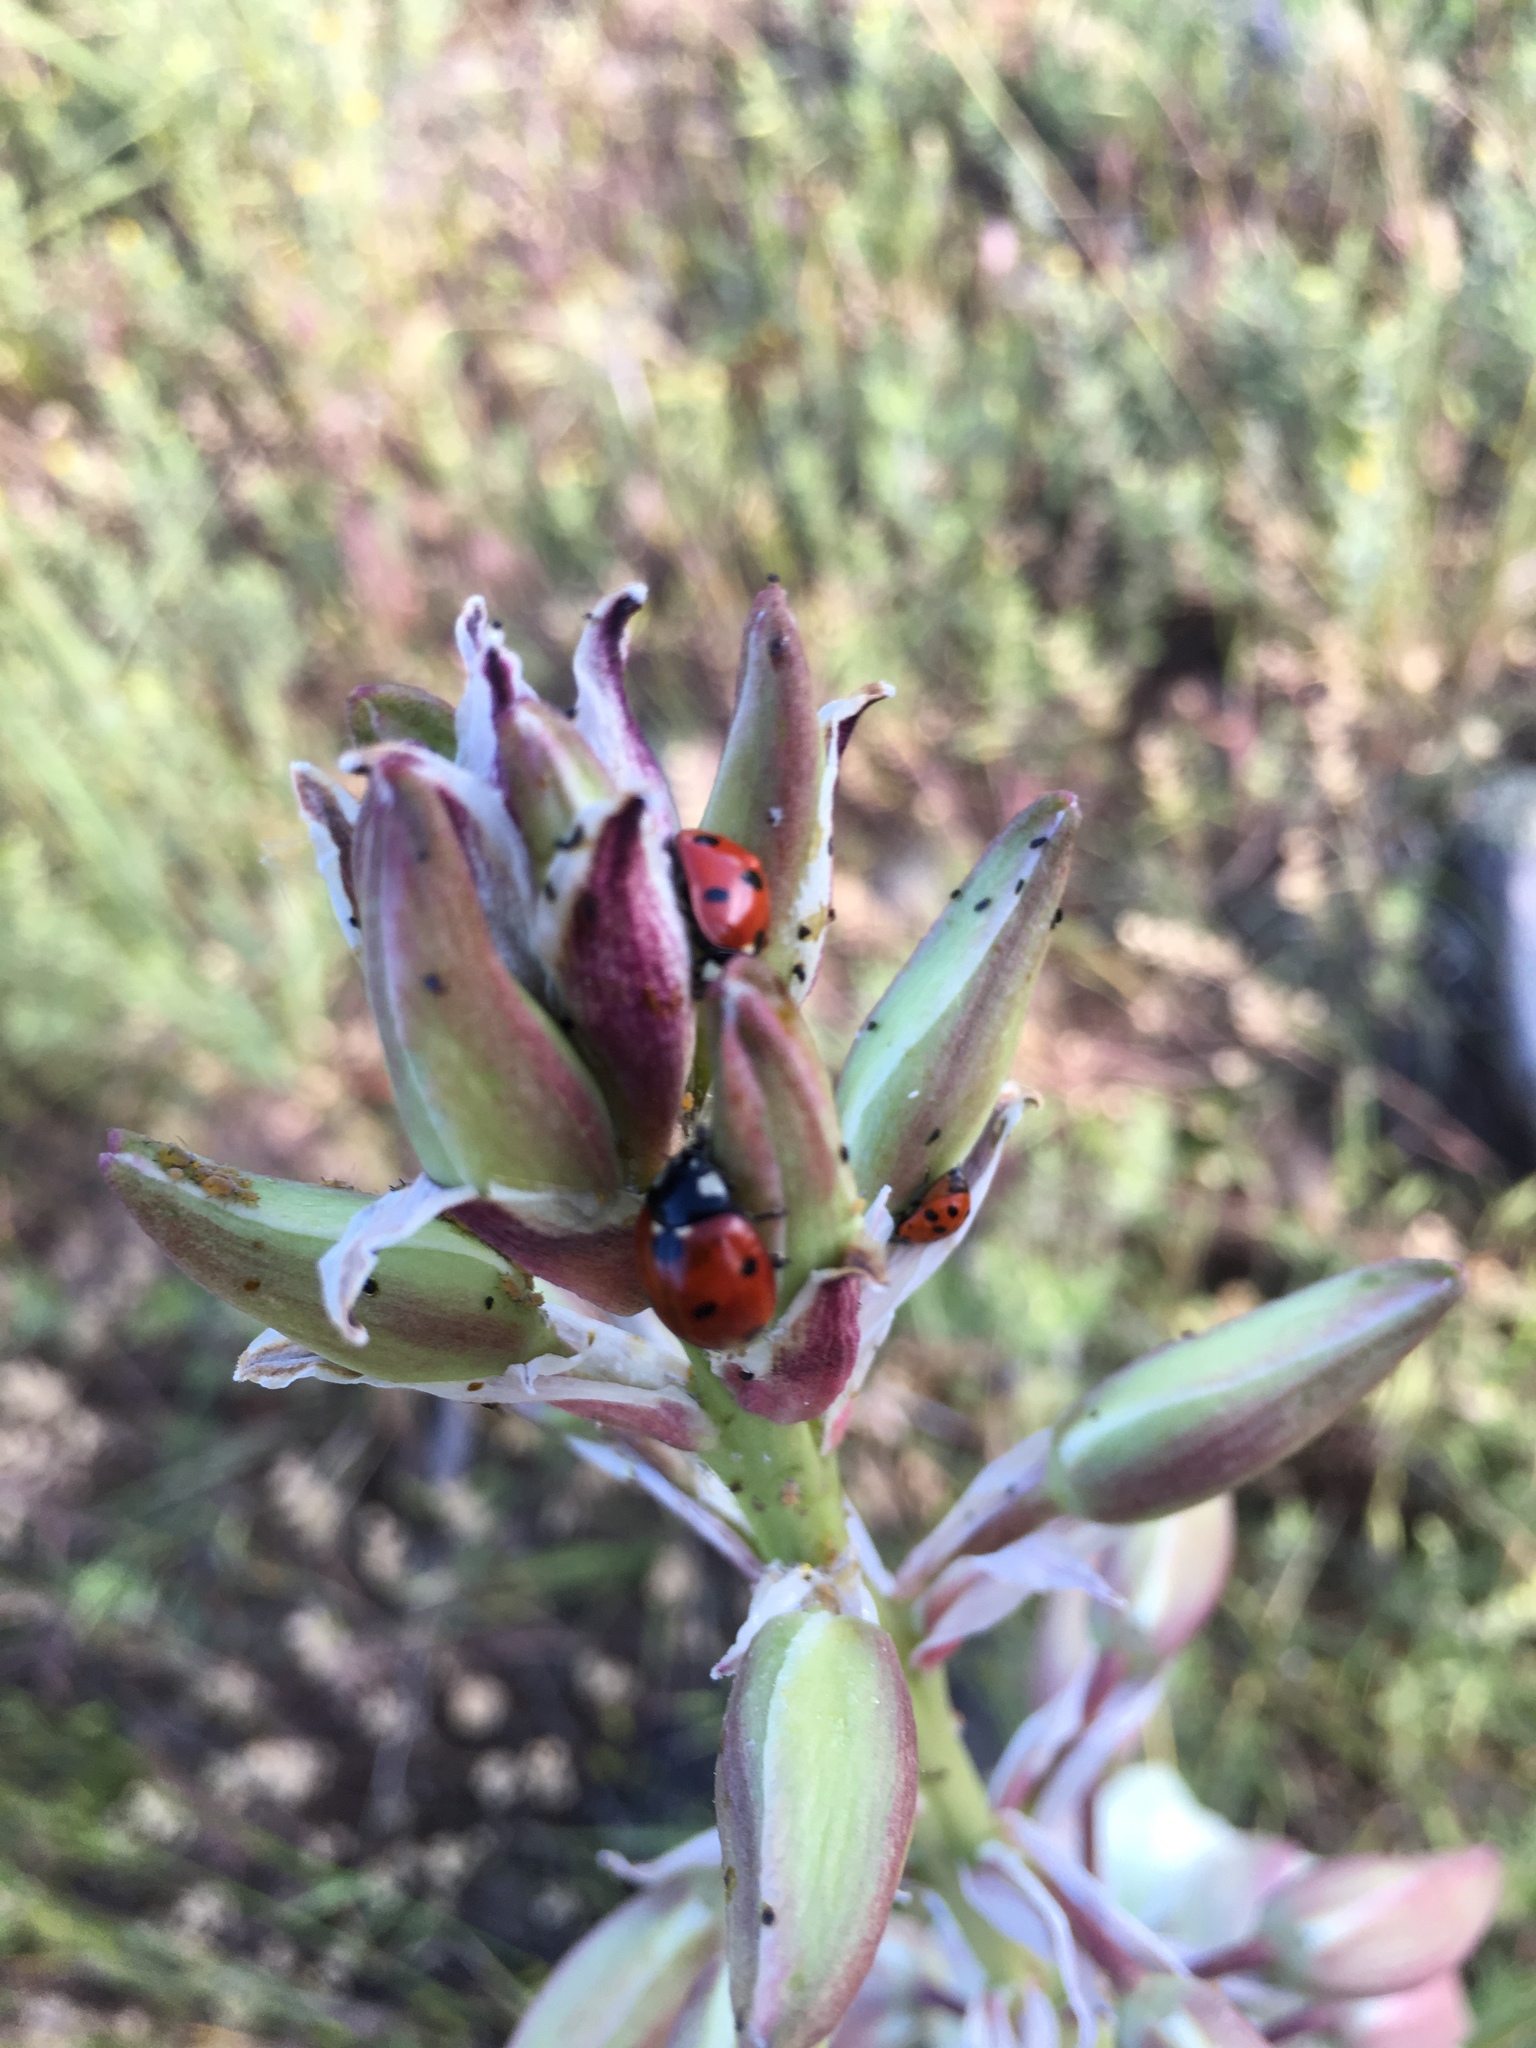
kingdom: Animalia
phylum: Arthropoda
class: Insecta
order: Coleoptera
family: Coccinellidae
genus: Coccinella
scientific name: Coccinella septempunctata
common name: Sevenspotted lady beetle
